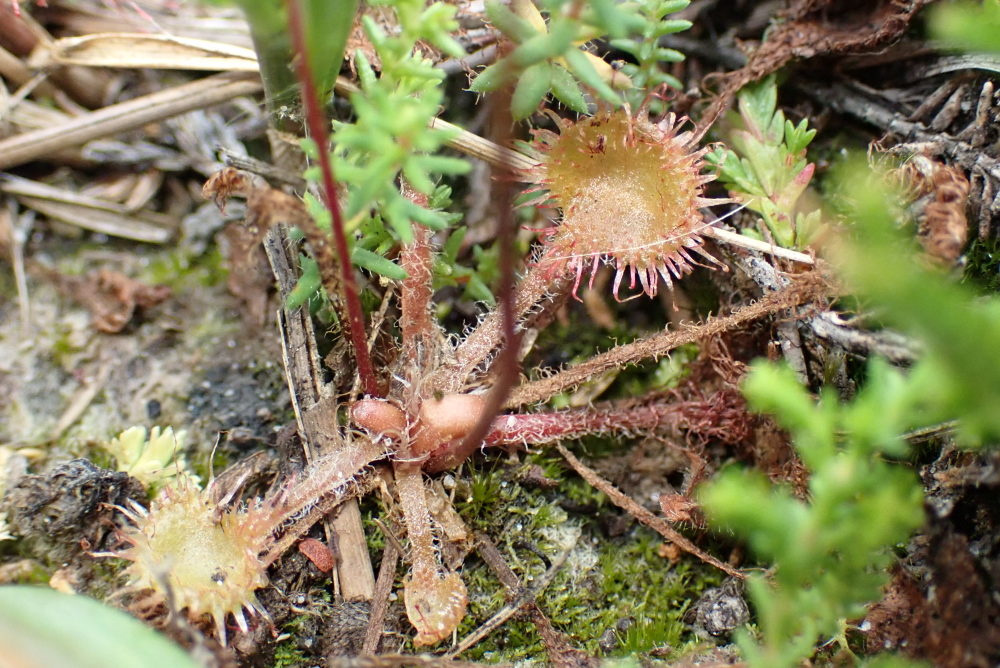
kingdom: Plantae
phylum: Tracheophyta
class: Magnoliopsida
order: Caryophyllales
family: Droseraceae
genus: Drosera
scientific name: Drosera rotundifolia
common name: Round-leaved sundew
